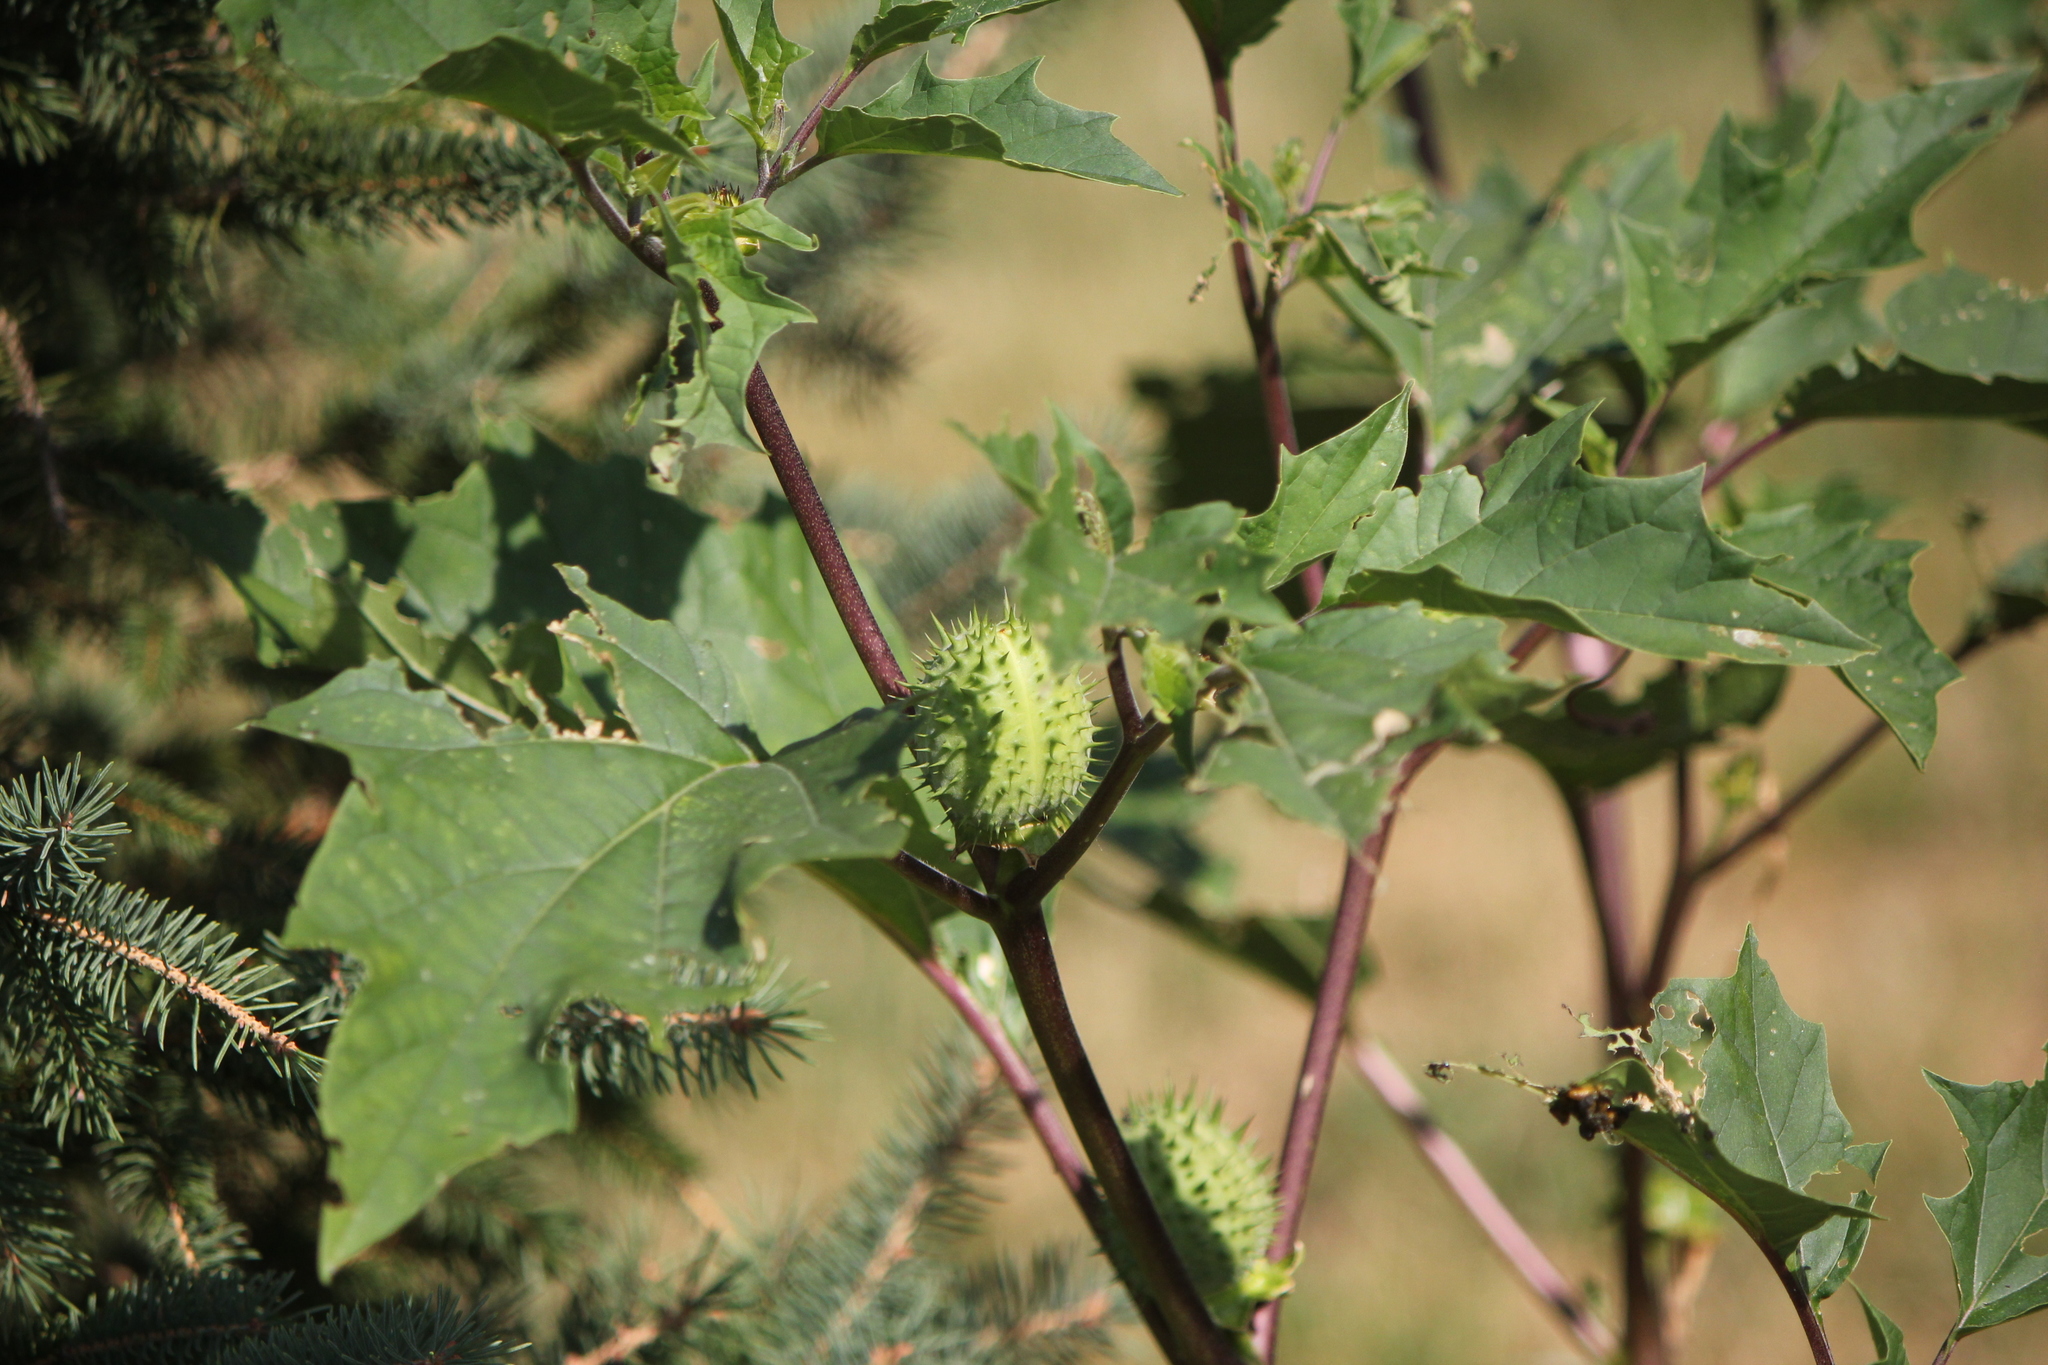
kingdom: Plantae
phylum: Tracheophyta
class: Magnoliopsida
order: Solanales
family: Solanaceae
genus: Datura
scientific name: Datura stramonium
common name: Thorn-apple
